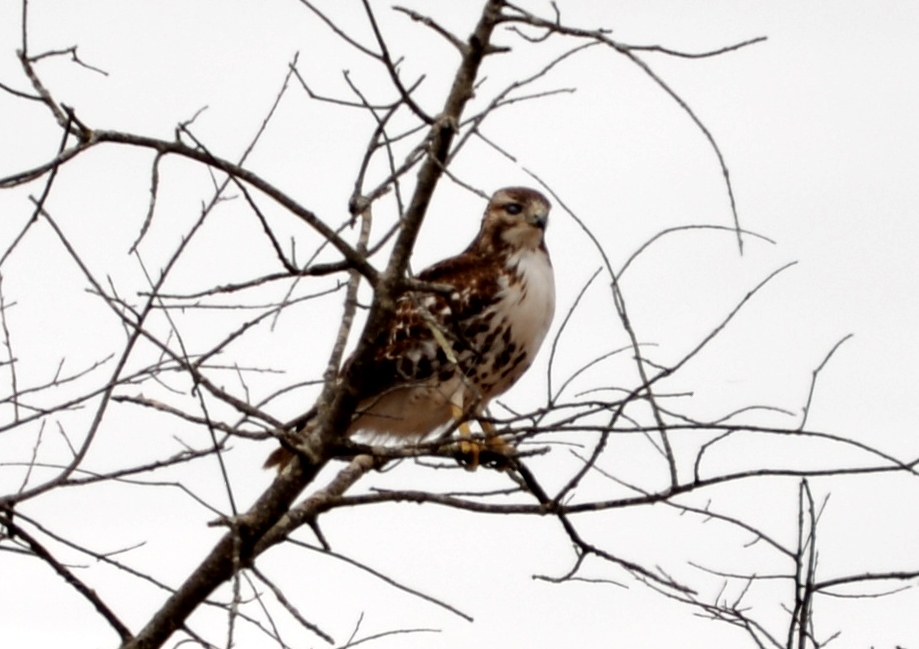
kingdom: Animalia
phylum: Chordata
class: Aves
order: Accipitriformes
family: Accipitridae
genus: Buteo
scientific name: Buteo jamaicensis
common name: Red-tailed hawk
